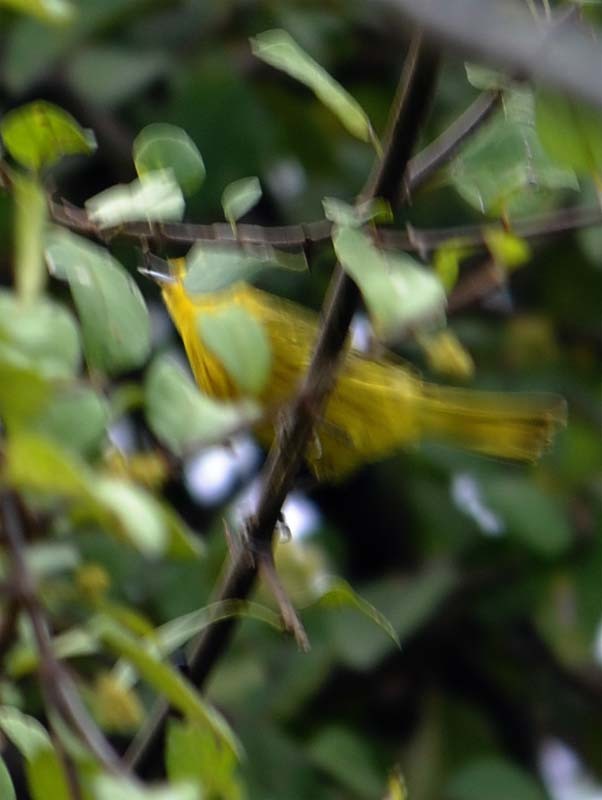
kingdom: Animalia
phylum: Chordata
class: Aves
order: Passeriformes
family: Parulidae
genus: Setophaga
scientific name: Setophaga petechia
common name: Yellow warbler
